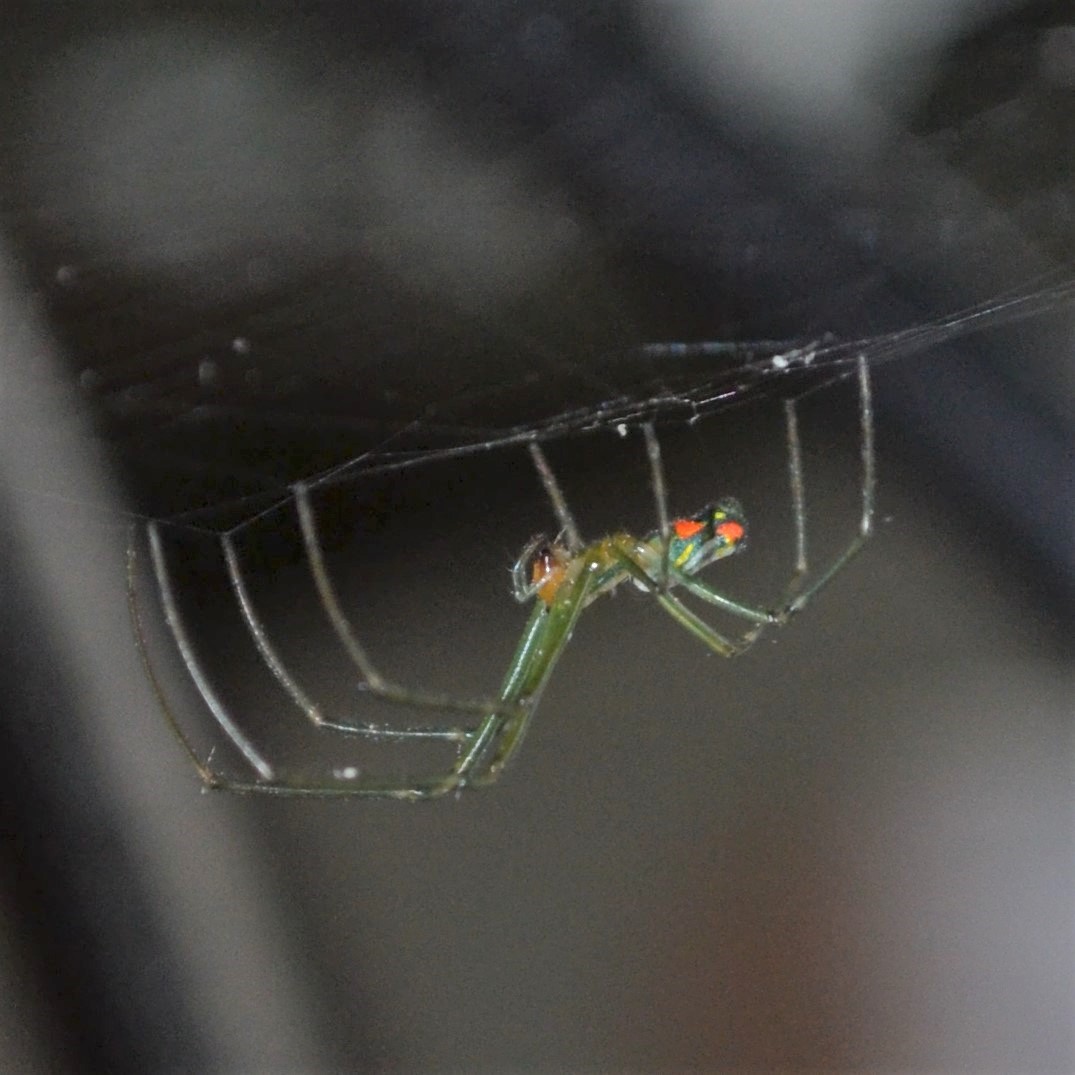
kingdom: Animalia
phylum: Arthropoda
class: Arachnida
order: Araneae
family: Tetragnathidae
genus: Leucauge
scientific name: Leucauge argyrobapta
